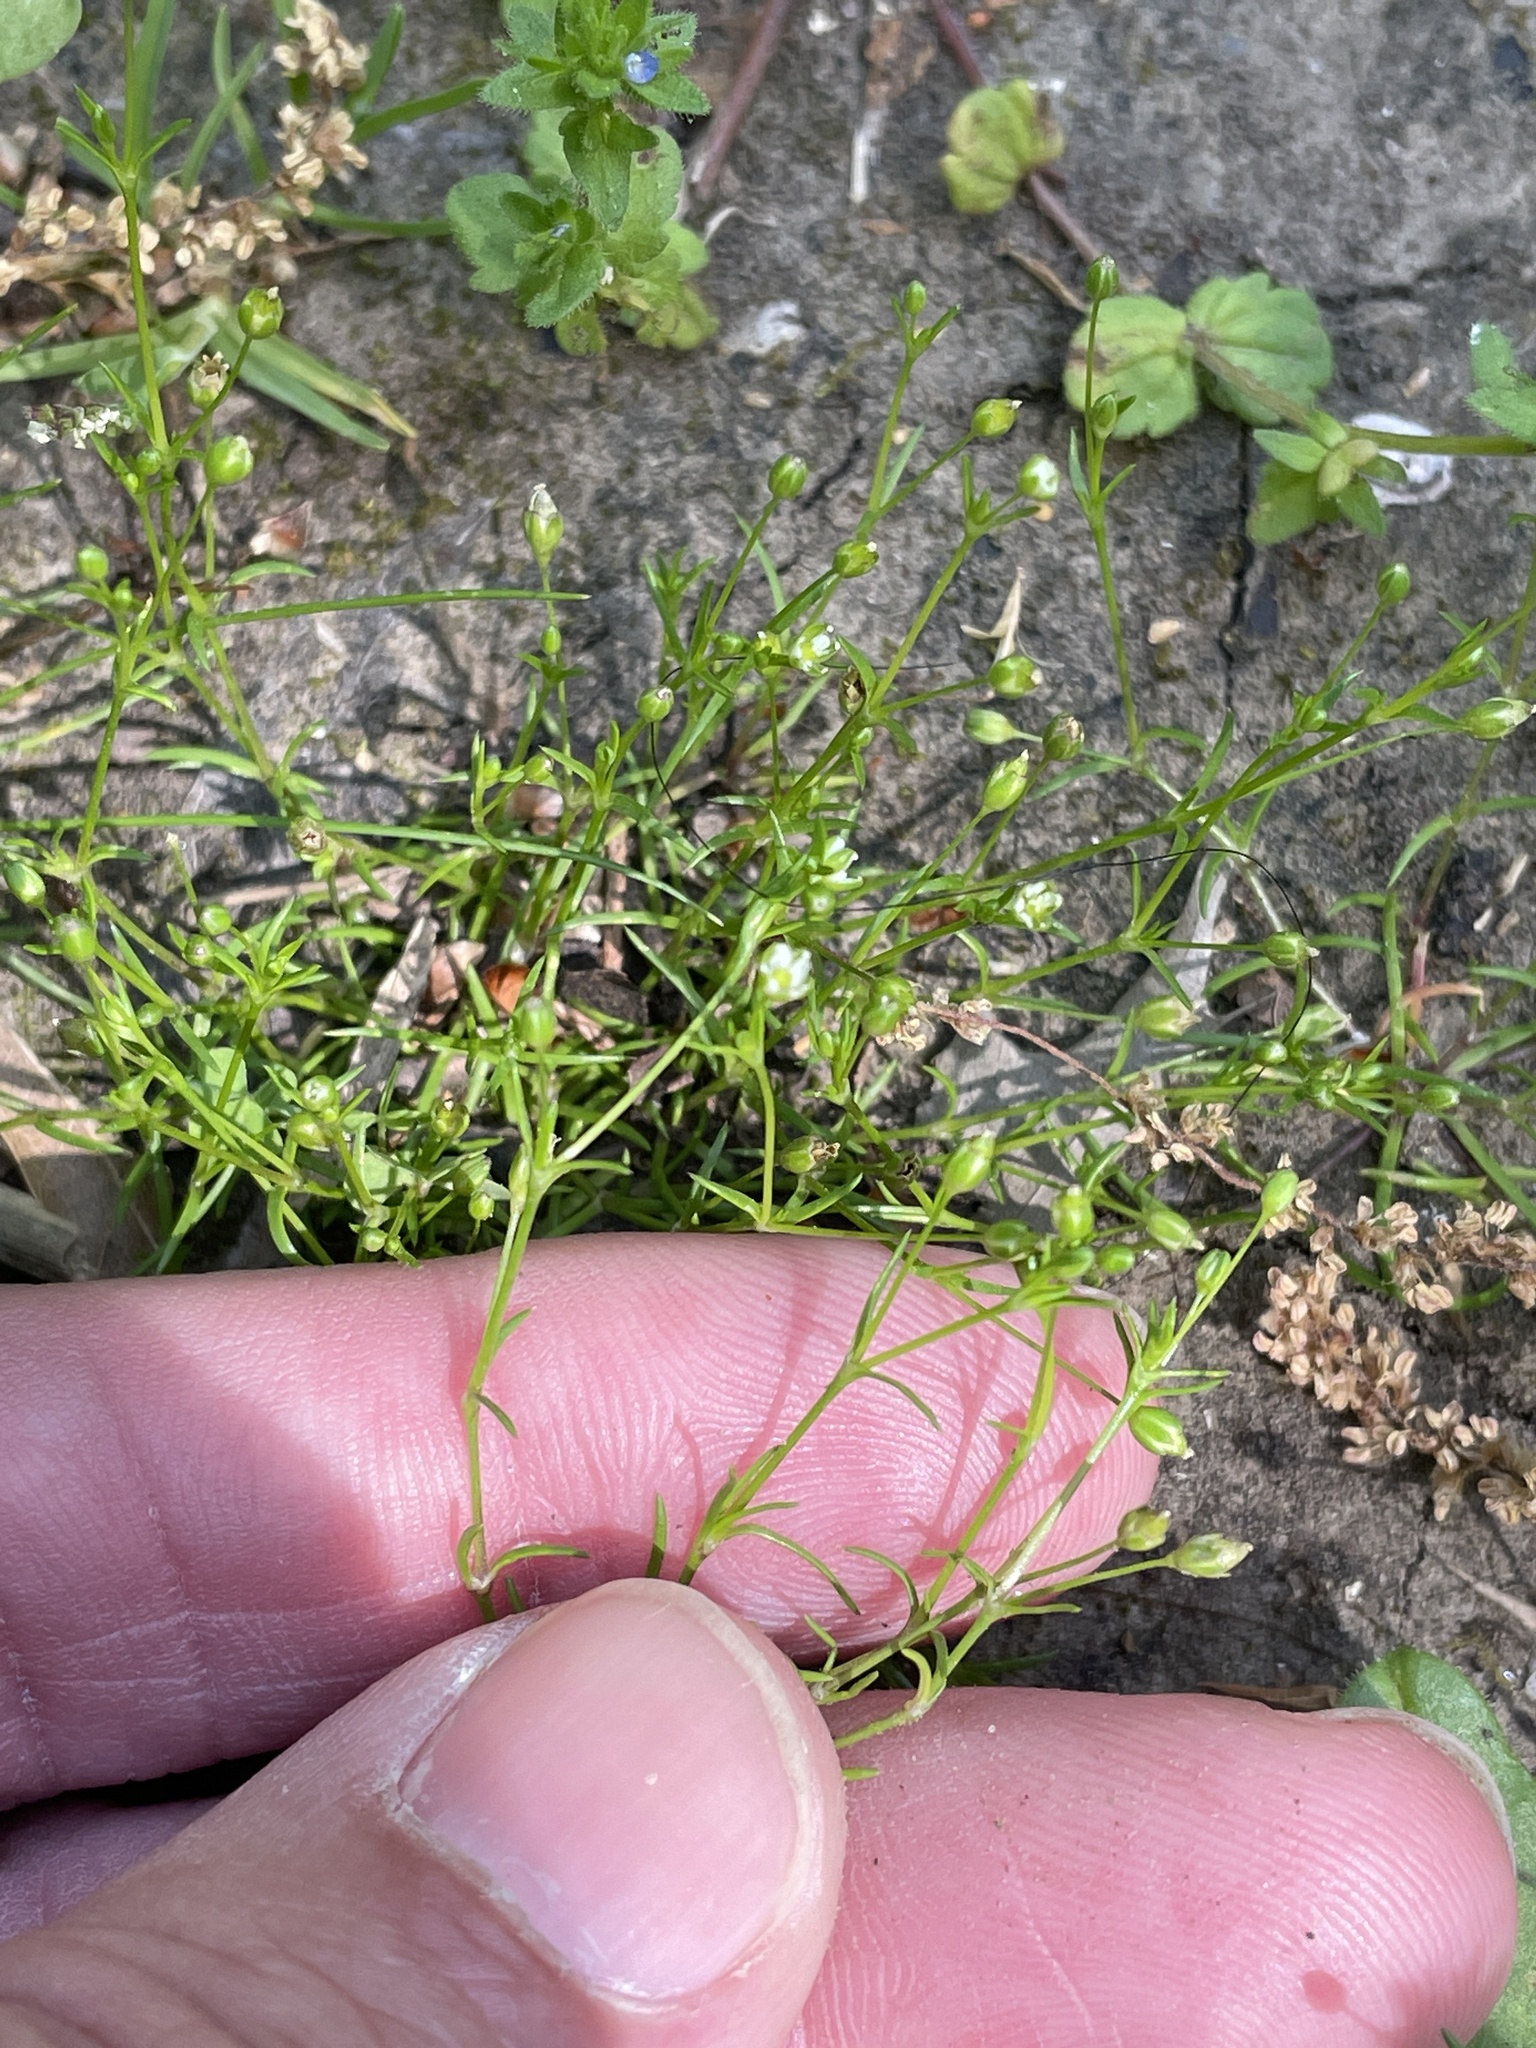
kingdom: Plantae
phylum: Tracheophyta
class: Magnoliopsida
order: Caryophyllales
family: Caryophyllaceae
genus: Sagina
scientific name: Sagina decumbens
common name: Decumbent pearlwort
